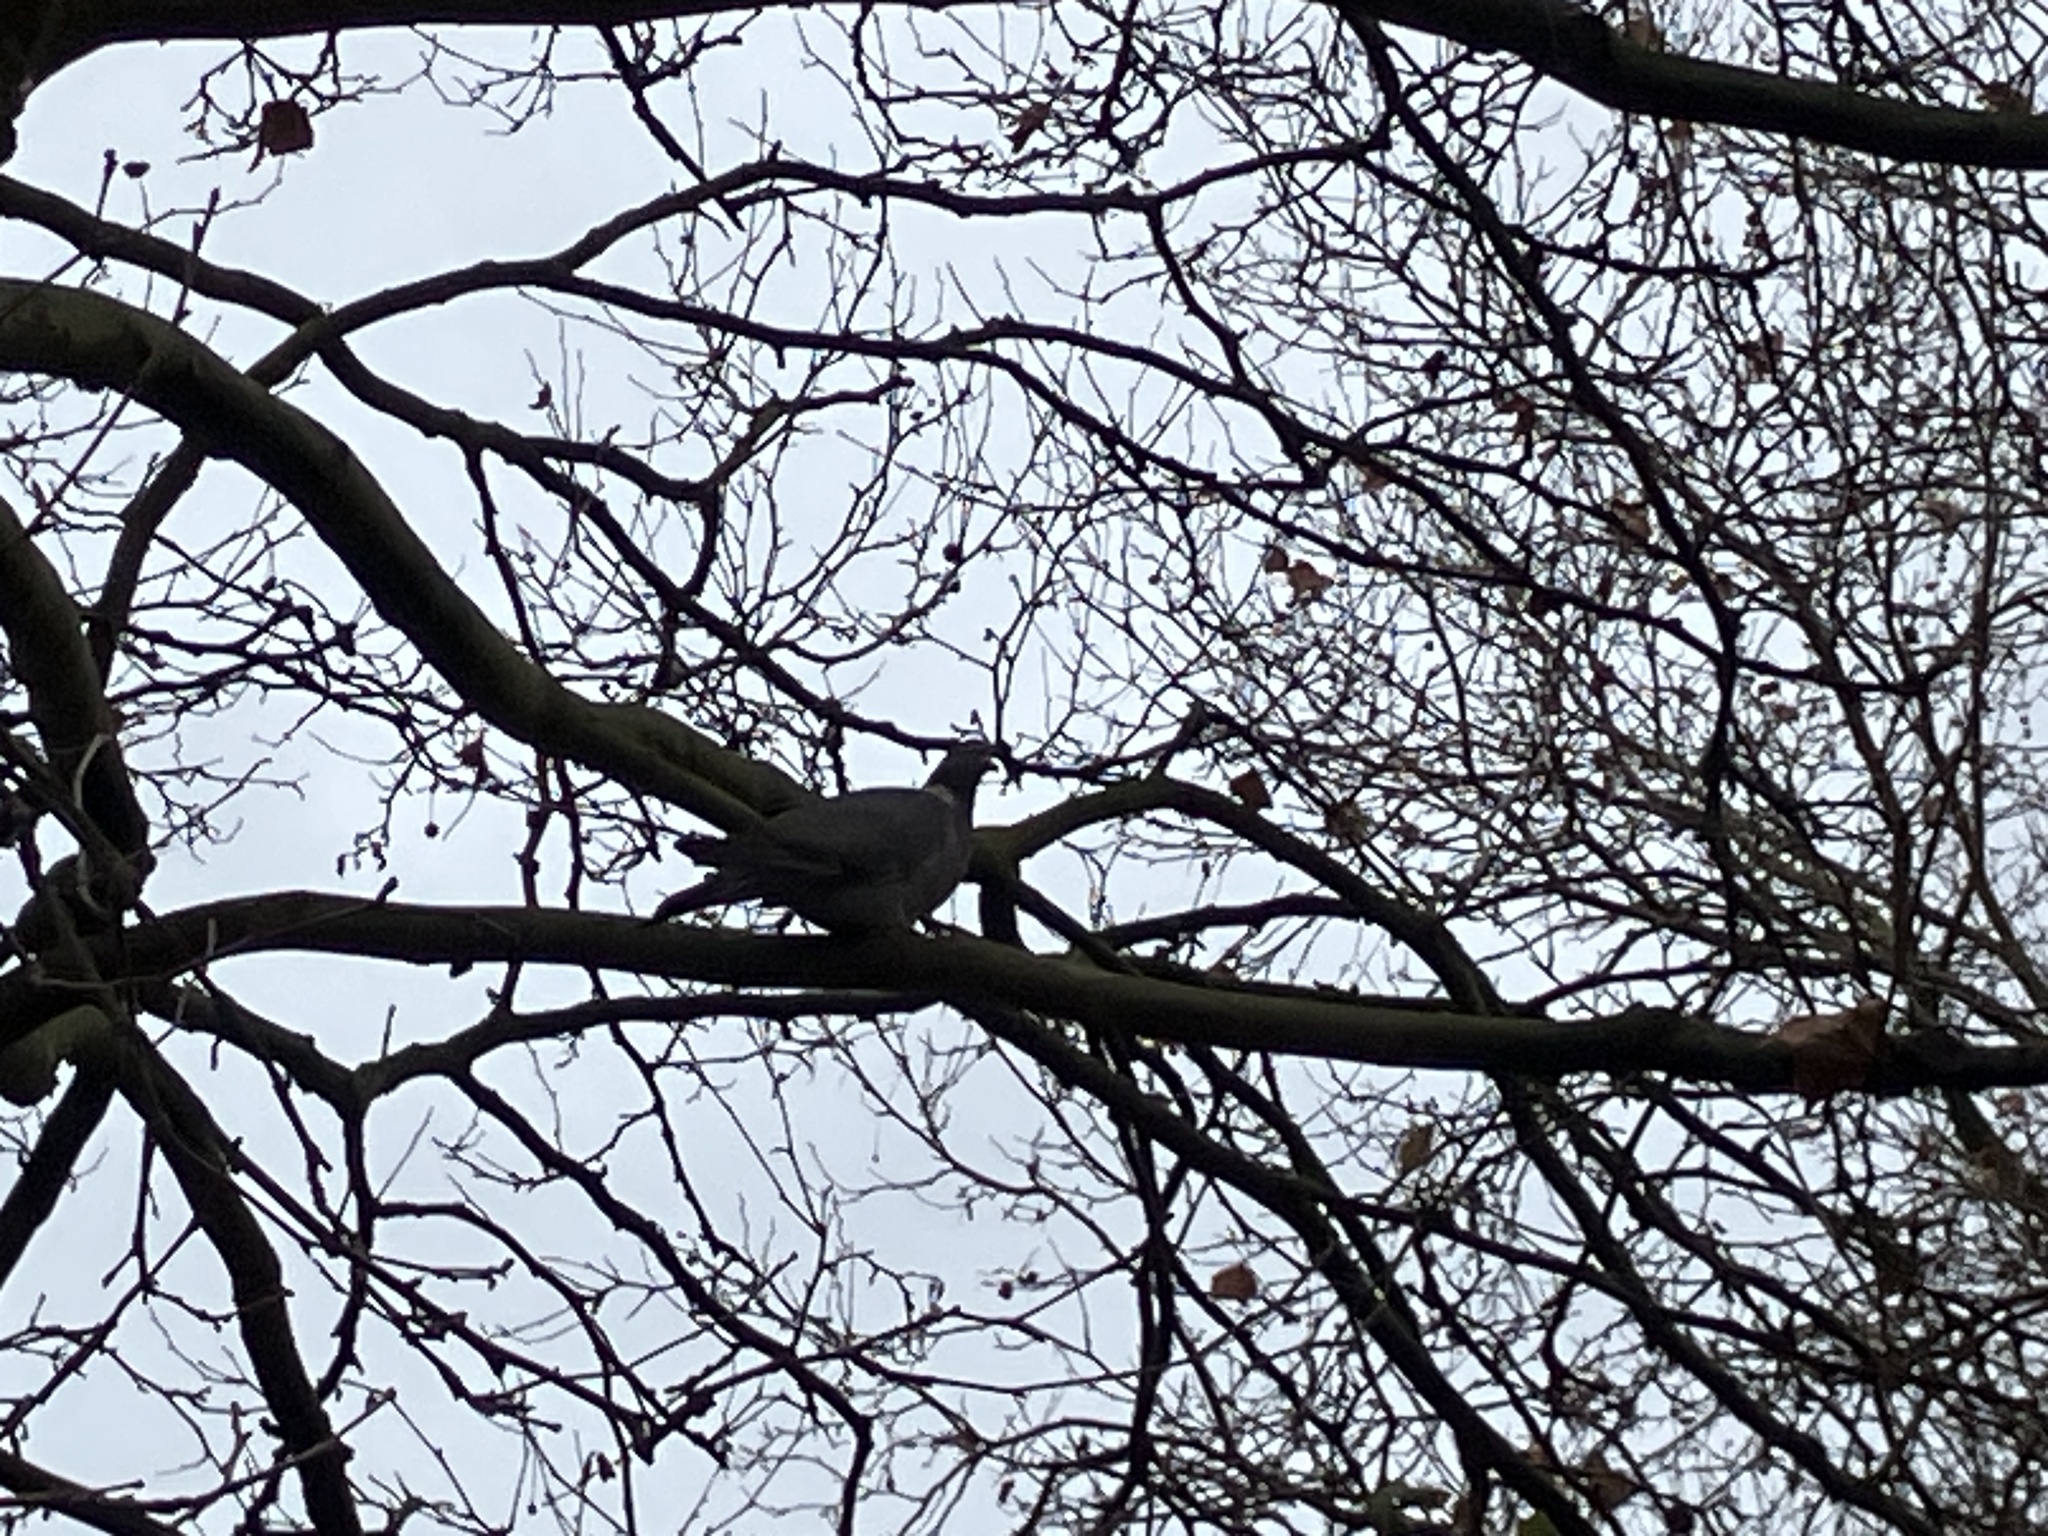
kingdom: Animalia
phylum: Chordata
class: Aves
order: Columbiformes
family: Columbidae
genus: Columba
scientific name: Columba palumbus
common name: Common wood pigeon
